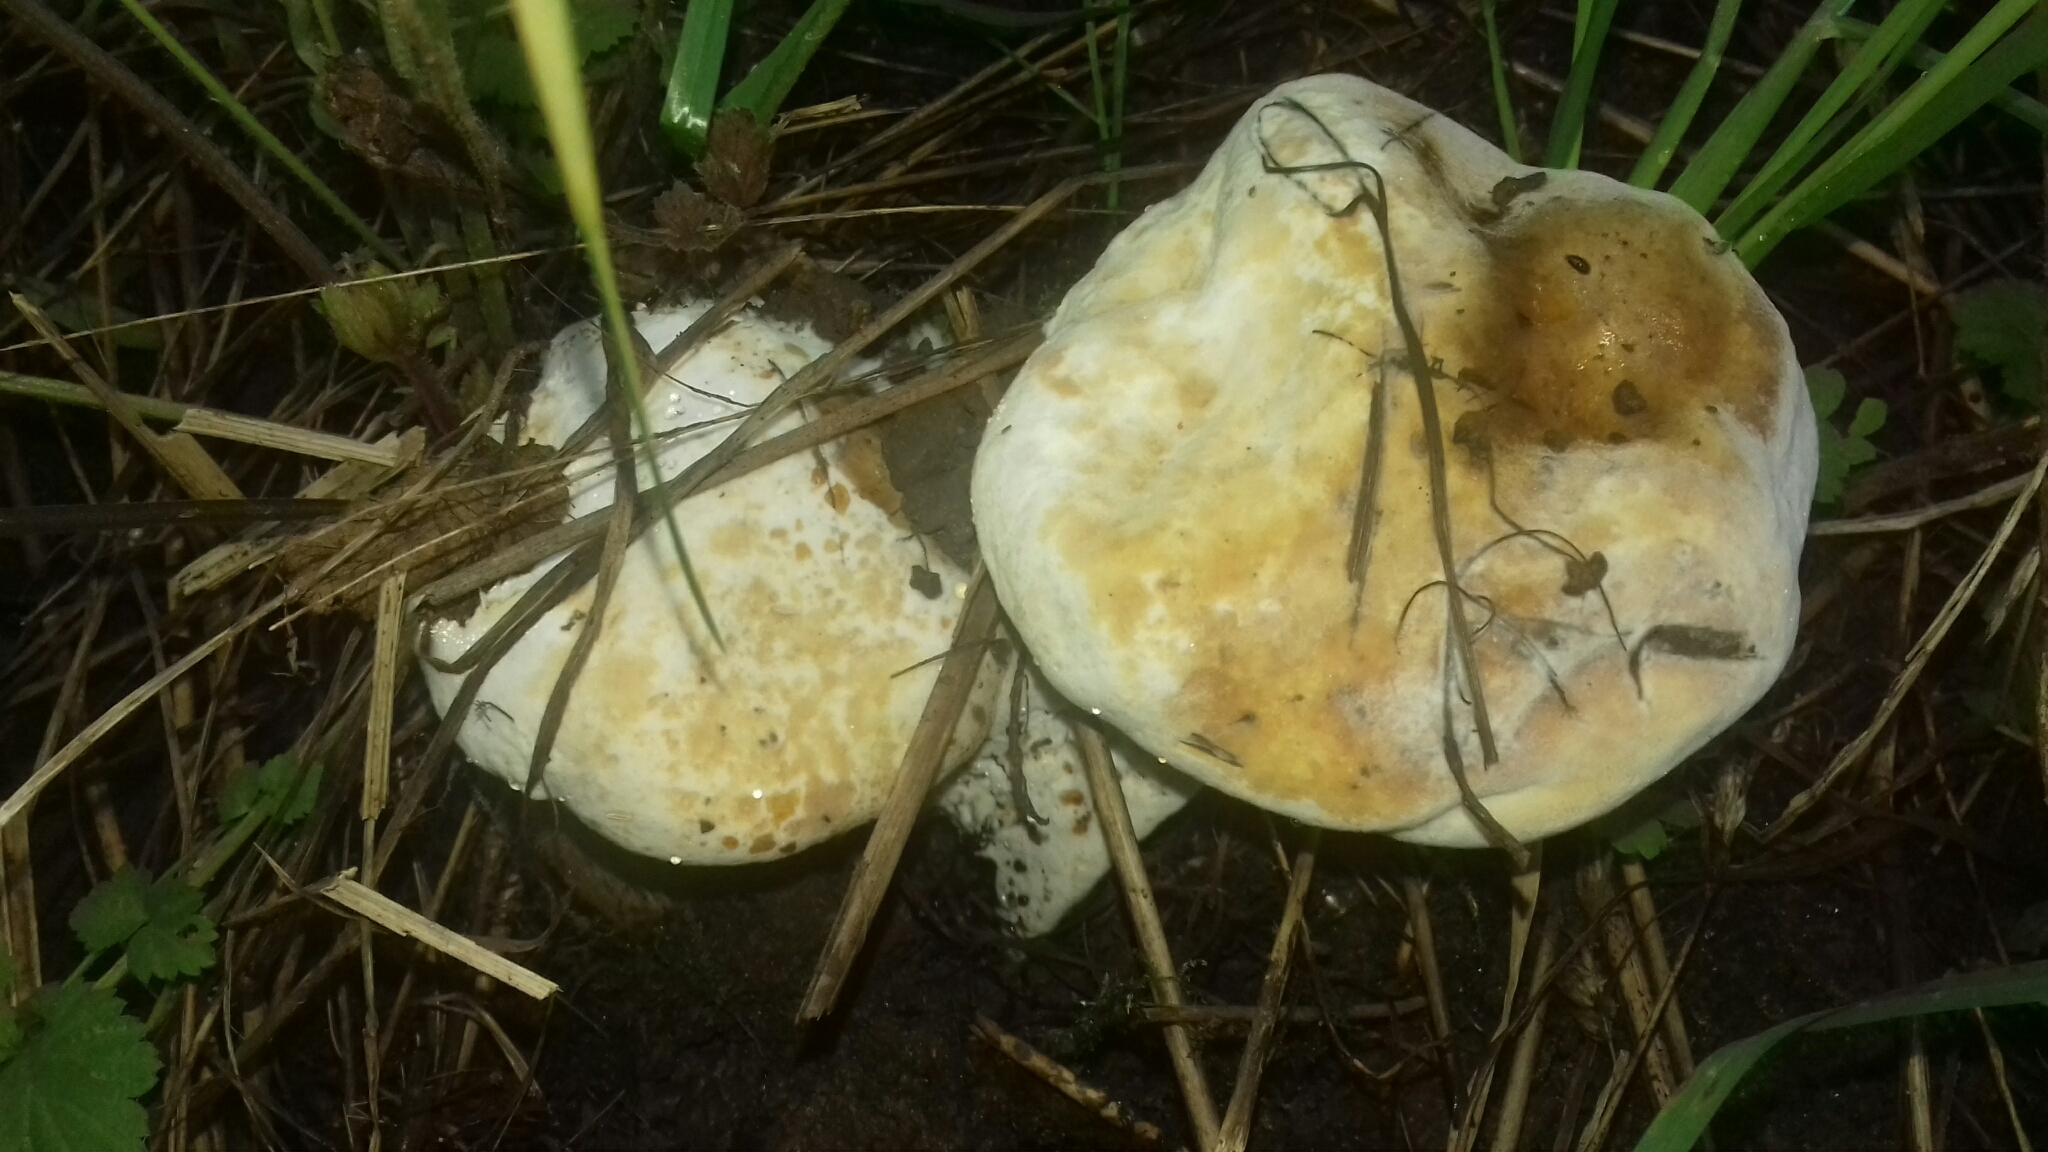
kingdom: Fungi
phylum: Ascomycota
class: Sordariomycetes
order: Hypocreales
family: Hypocreaceae
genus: Hypomyces
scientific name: Hypomyces chrysospermus
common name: Bolete mould
